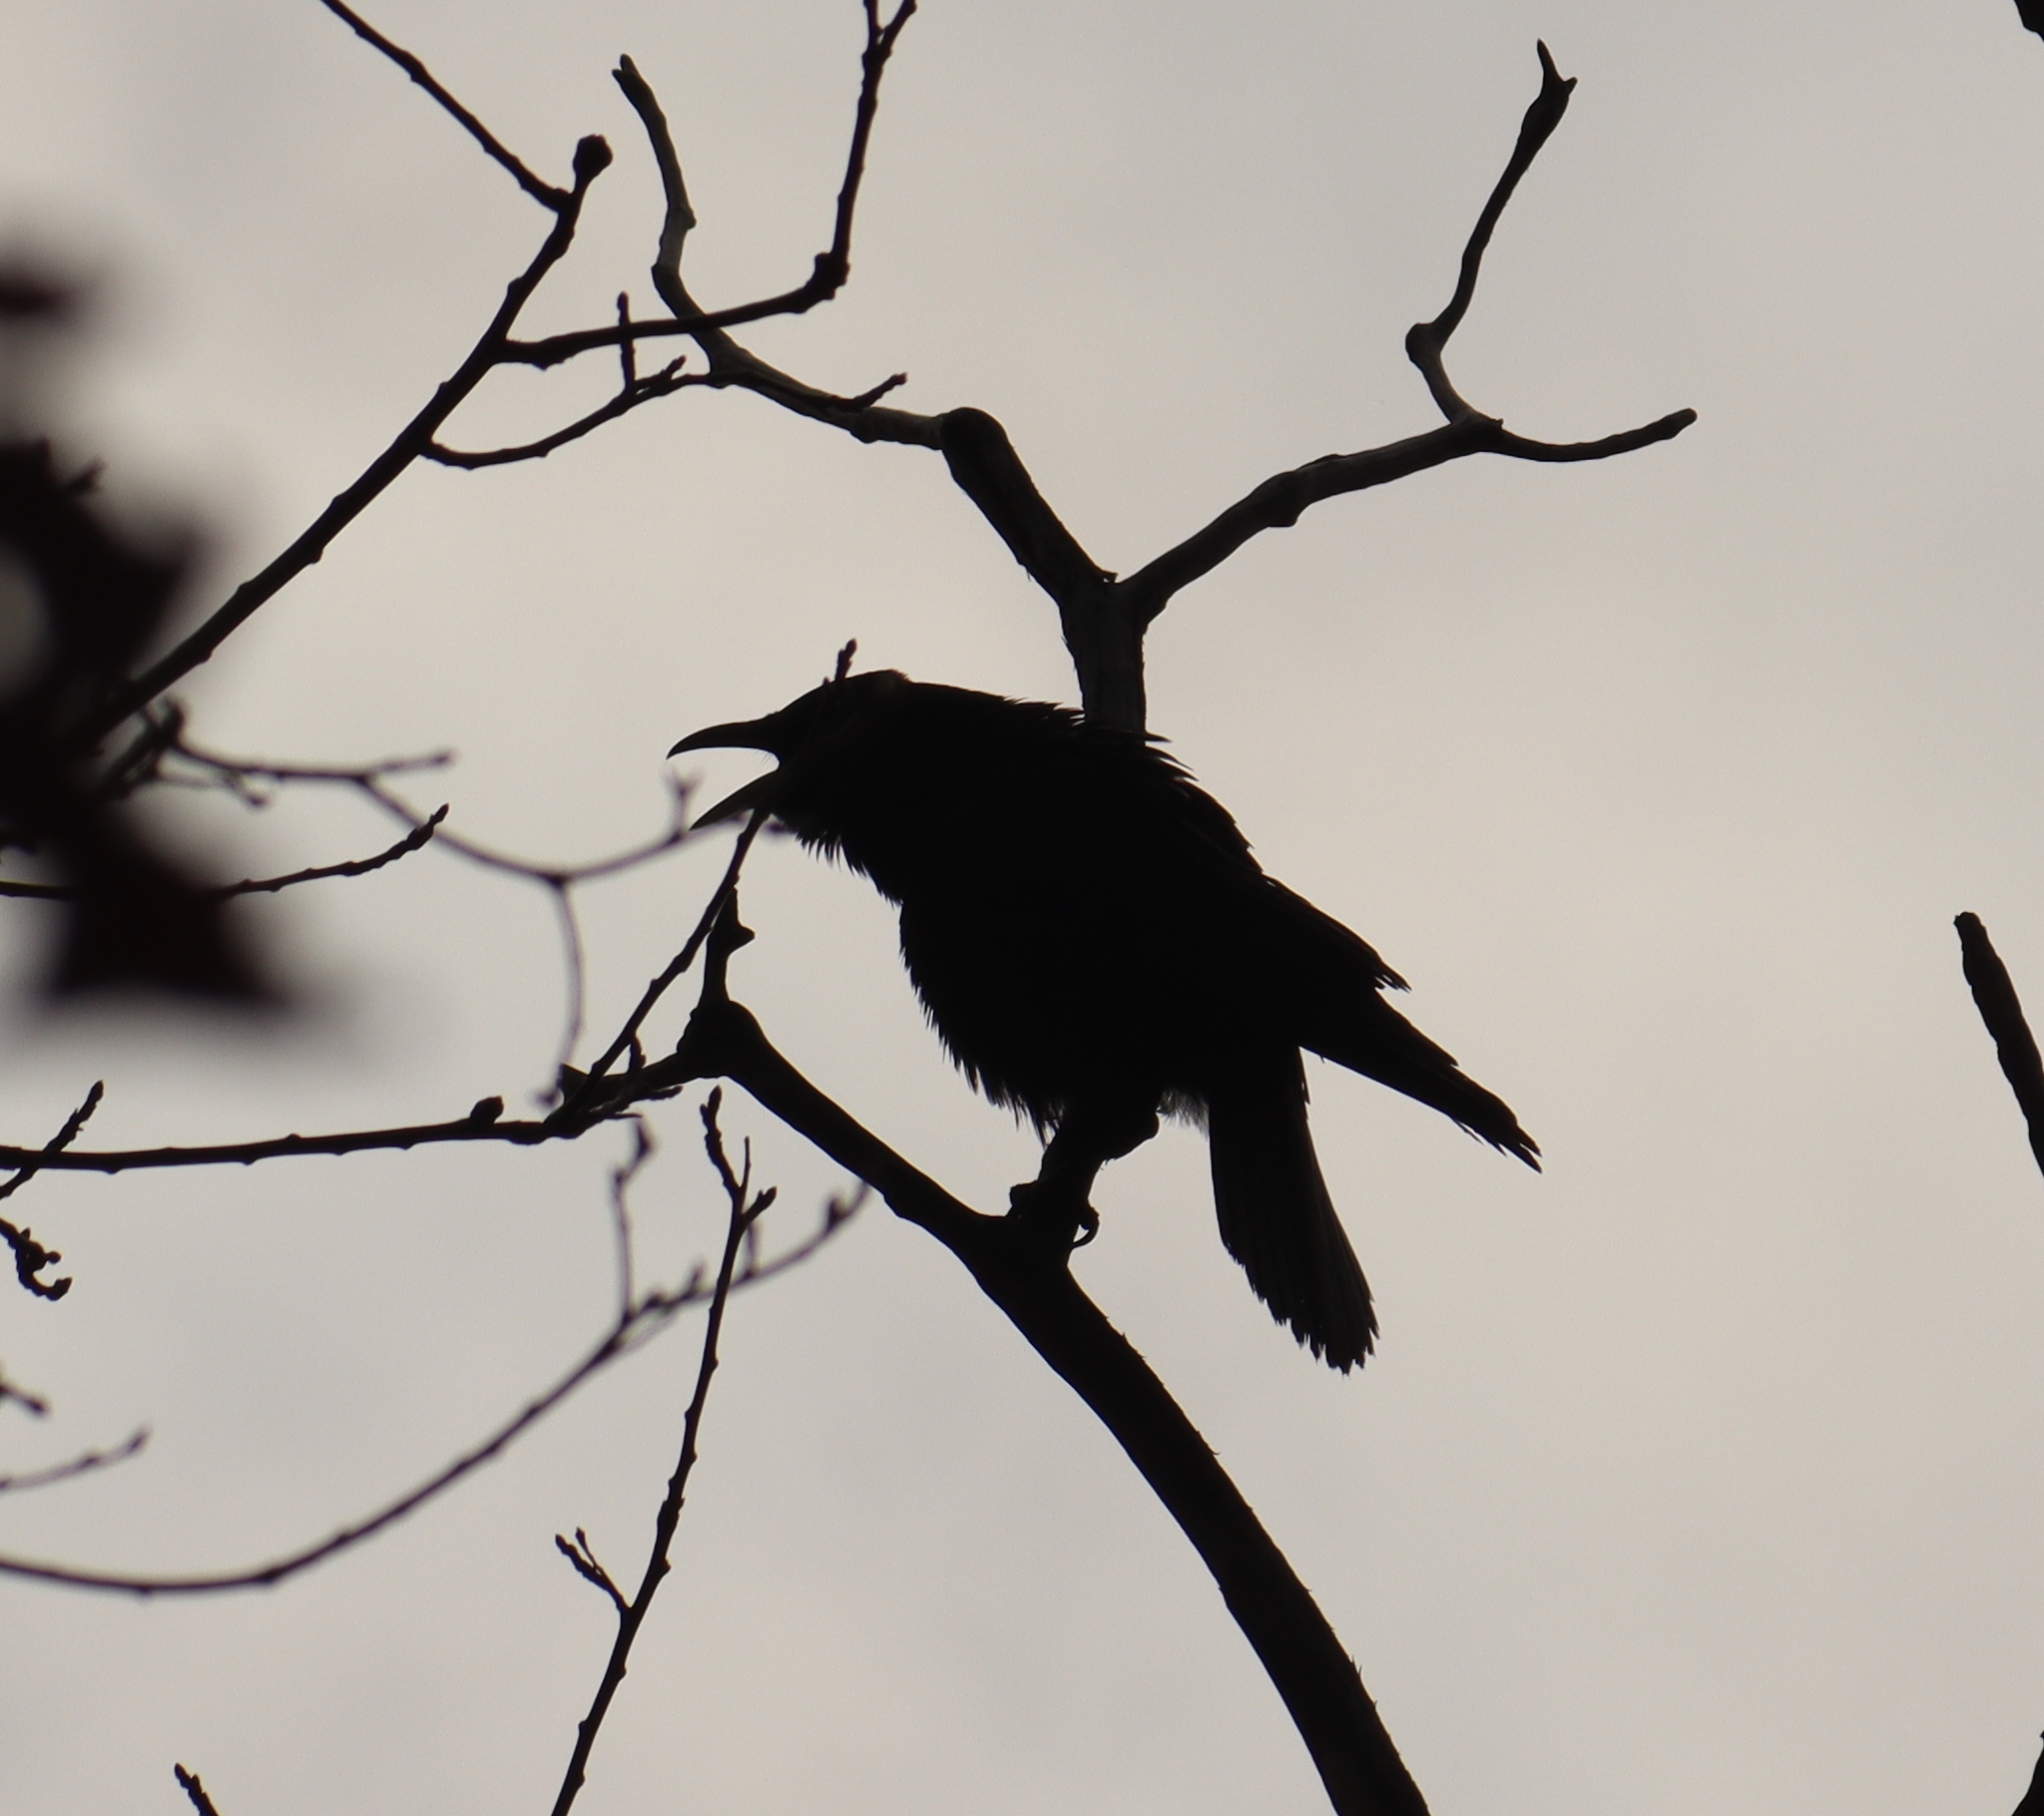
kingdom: Animalia
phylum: Chordata
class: Aves
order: Passeriformes
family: Corvidae
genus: Corvus
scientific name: Corvus corone
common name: Carrion crow
